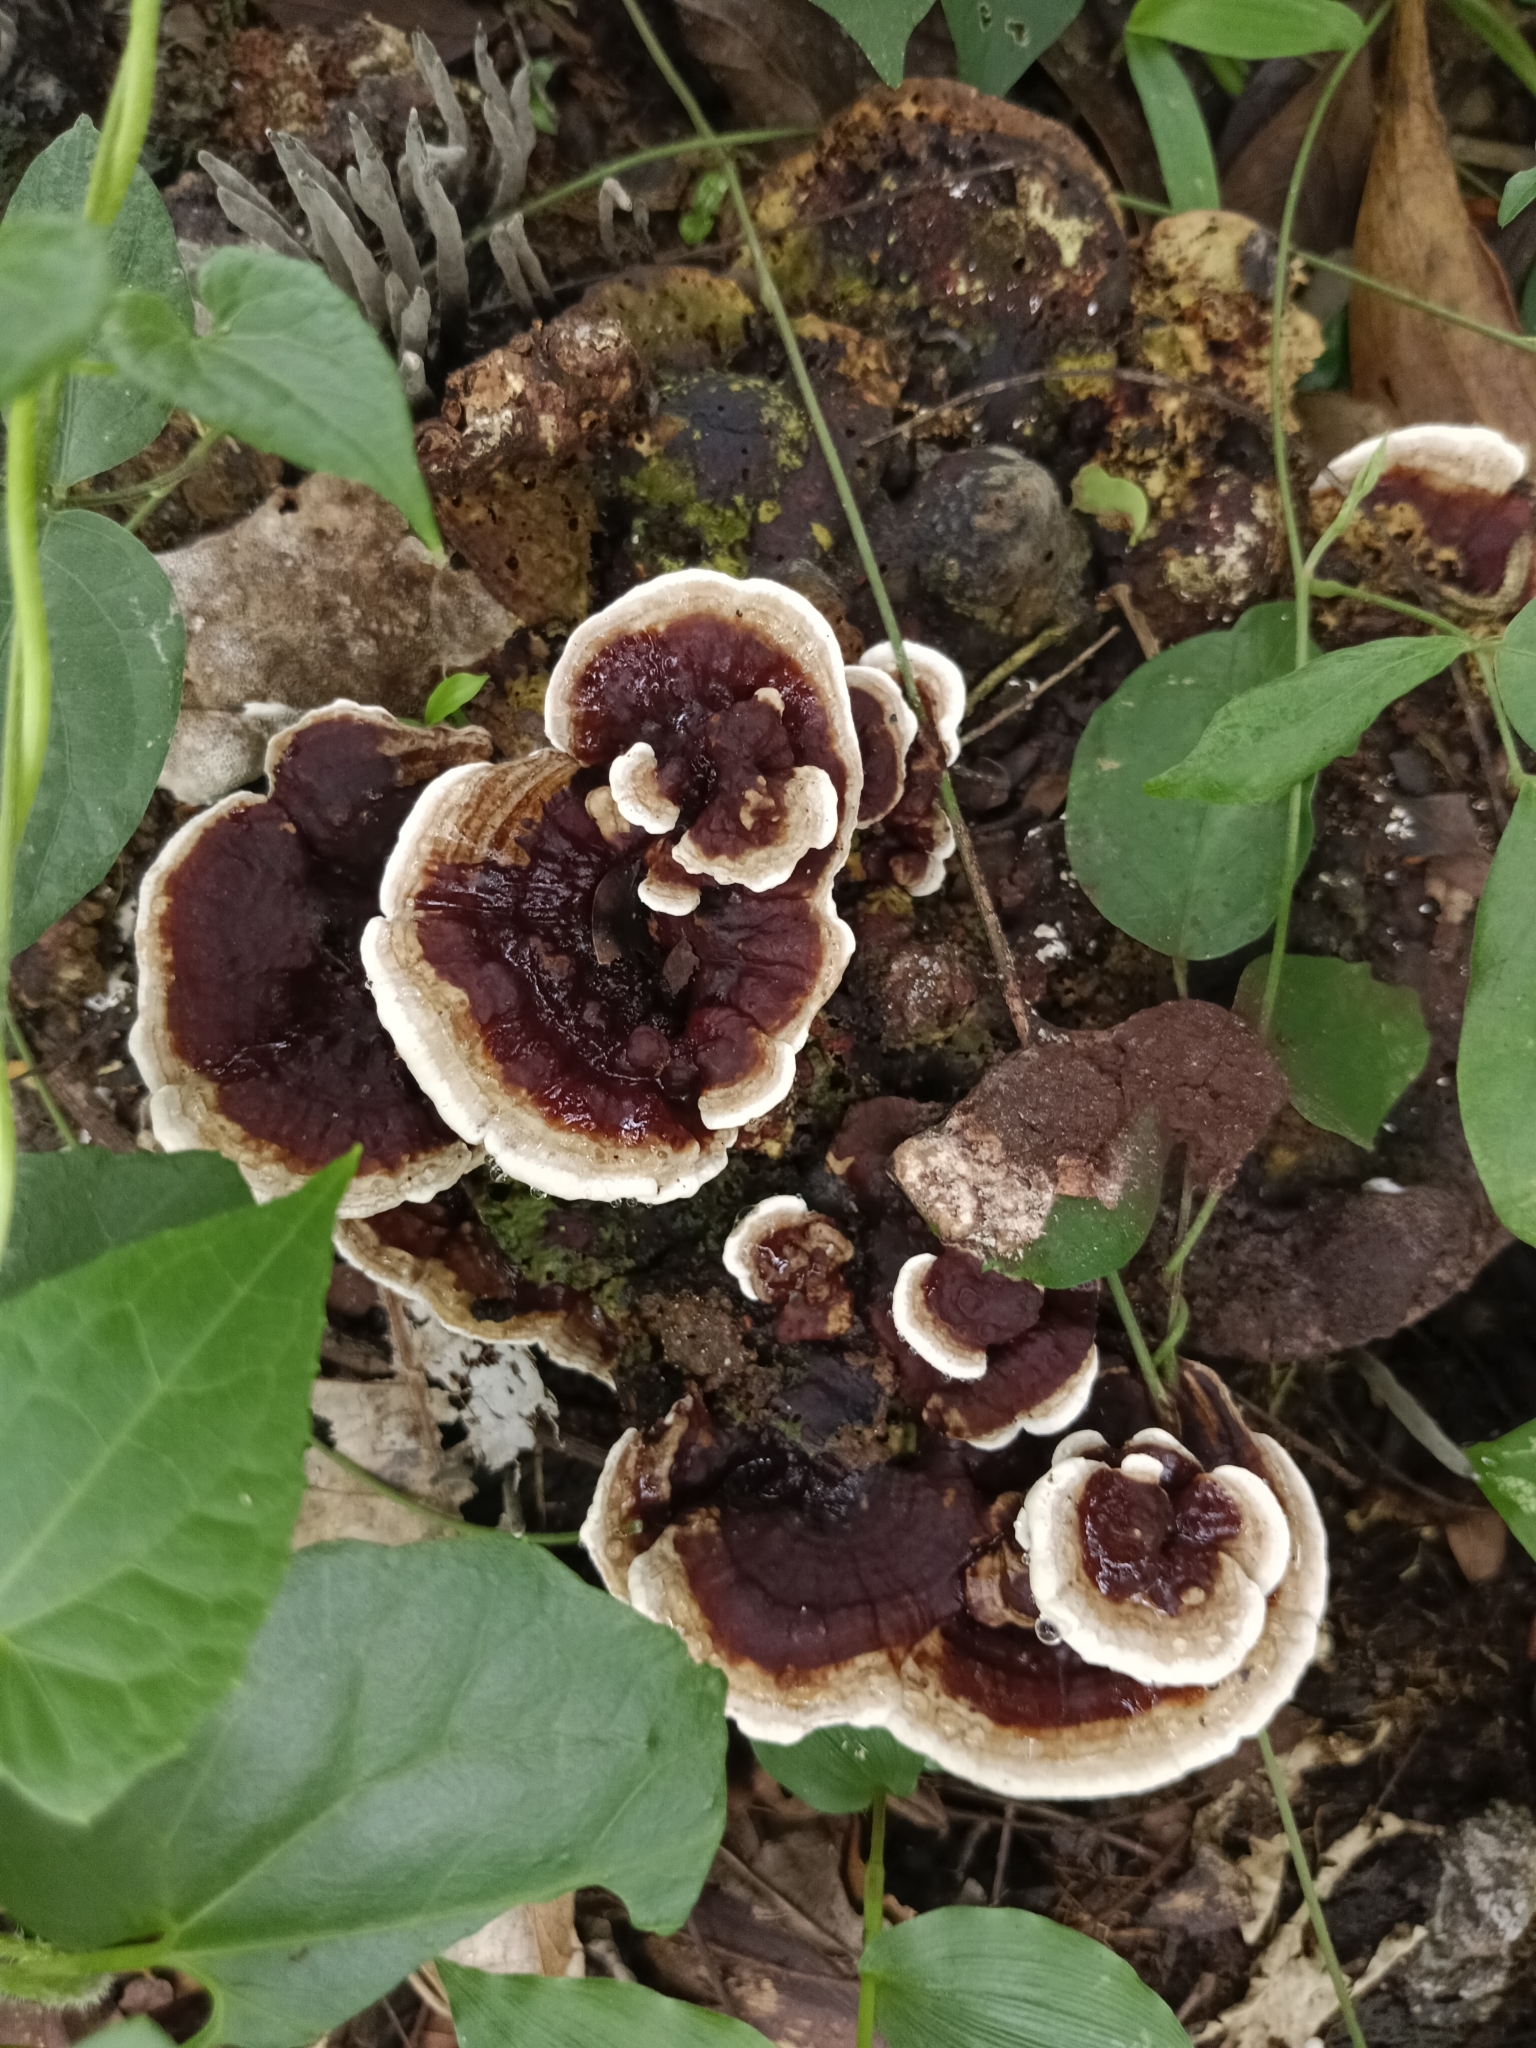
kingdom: Fungi
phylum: Basidiomycota
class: Agaricomycetes
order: Polyporales
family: Polyporaceae
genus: Earliella
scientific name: Earliella scabrosa
